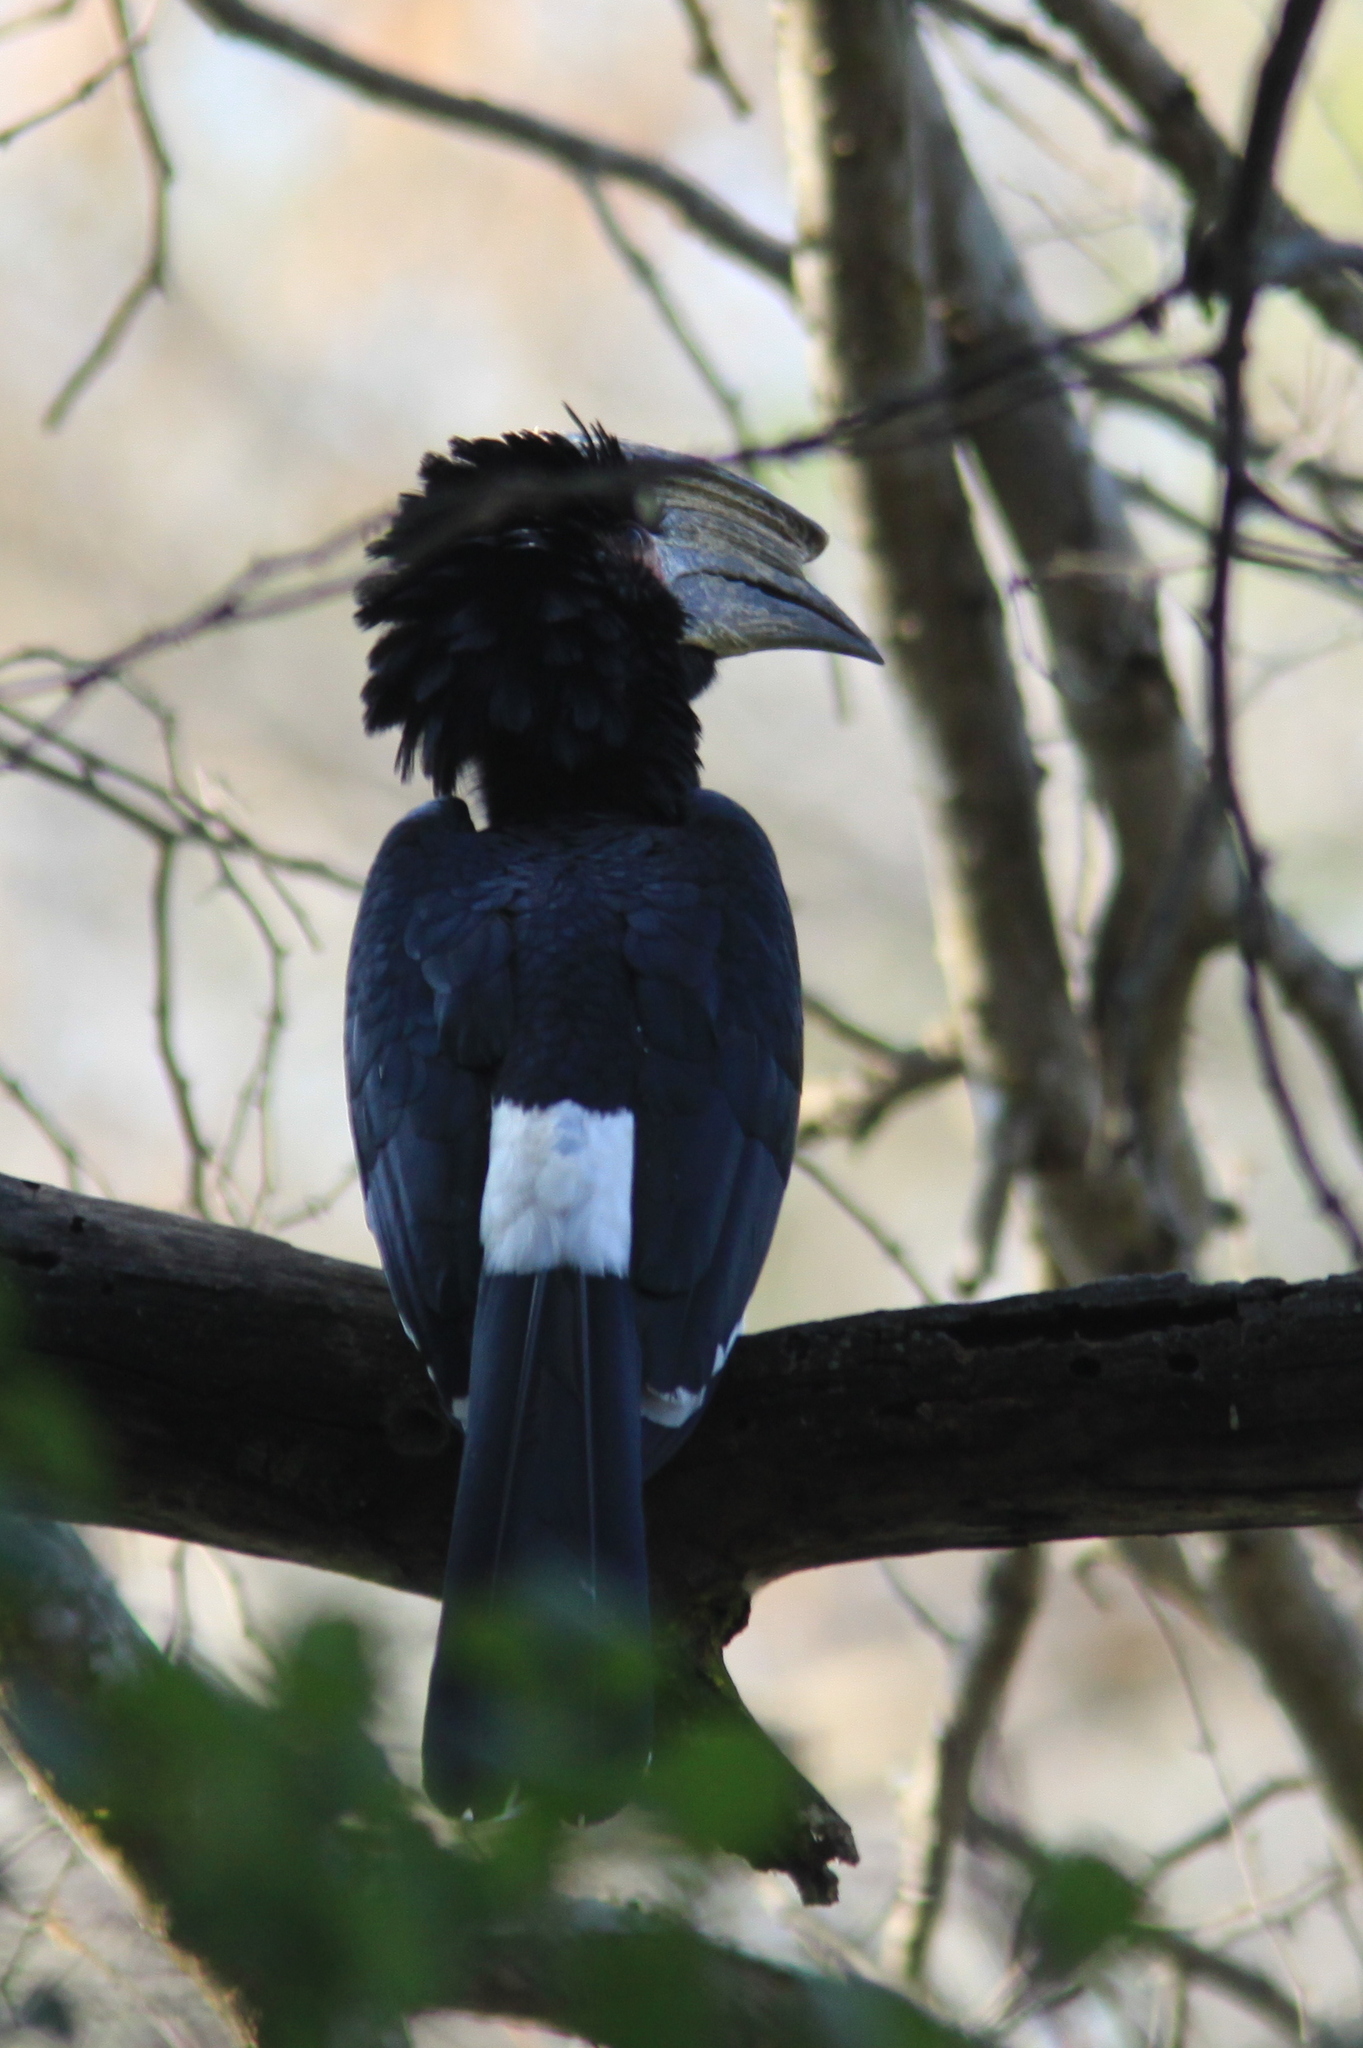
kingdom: Animalia
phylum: Chordata
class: Aves
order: Bucerotiformes
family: Bucerotidae
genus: Bycanistes
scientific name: Bycanistes bucinator
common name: Trumpeter hornbill
